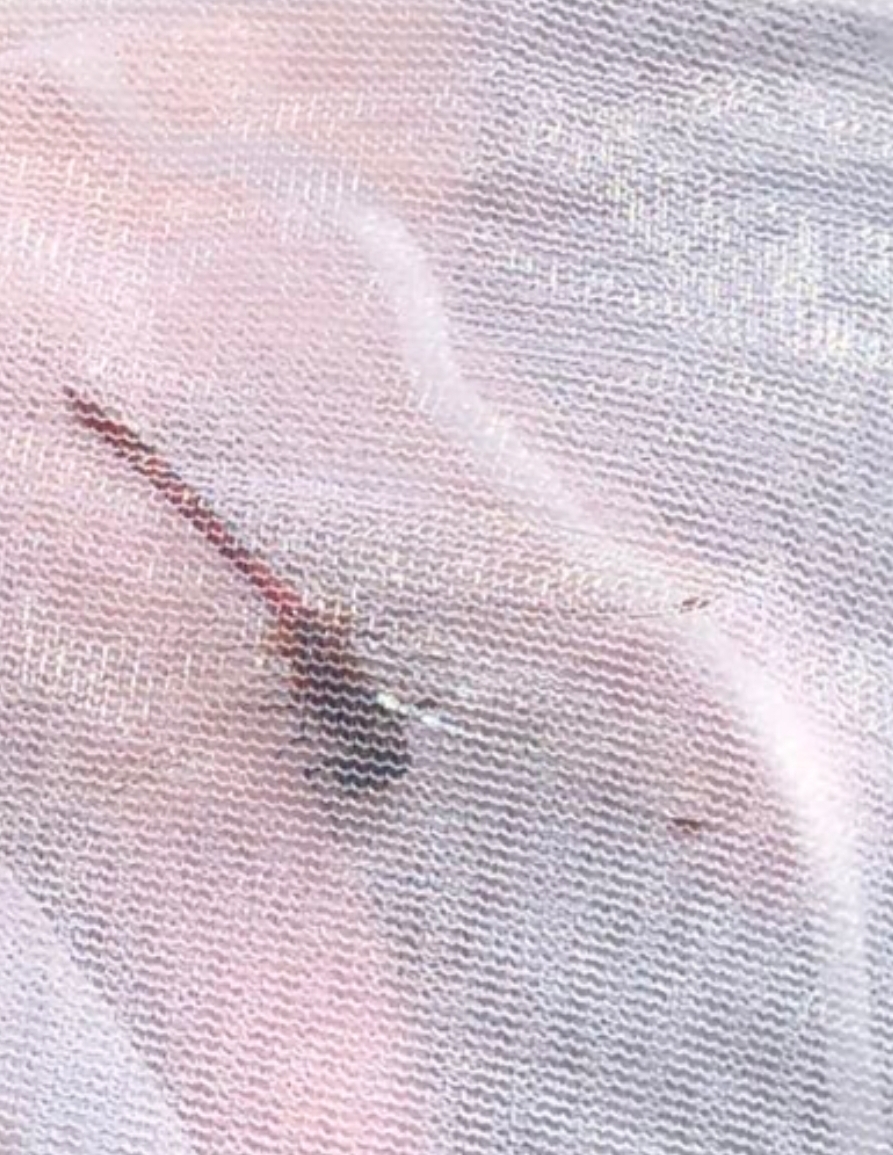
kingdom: Animalia
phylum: Arthropoda
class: Insecta
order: Odonata
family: Libellulidae
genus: Sympetrum
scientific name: Sympetrum
